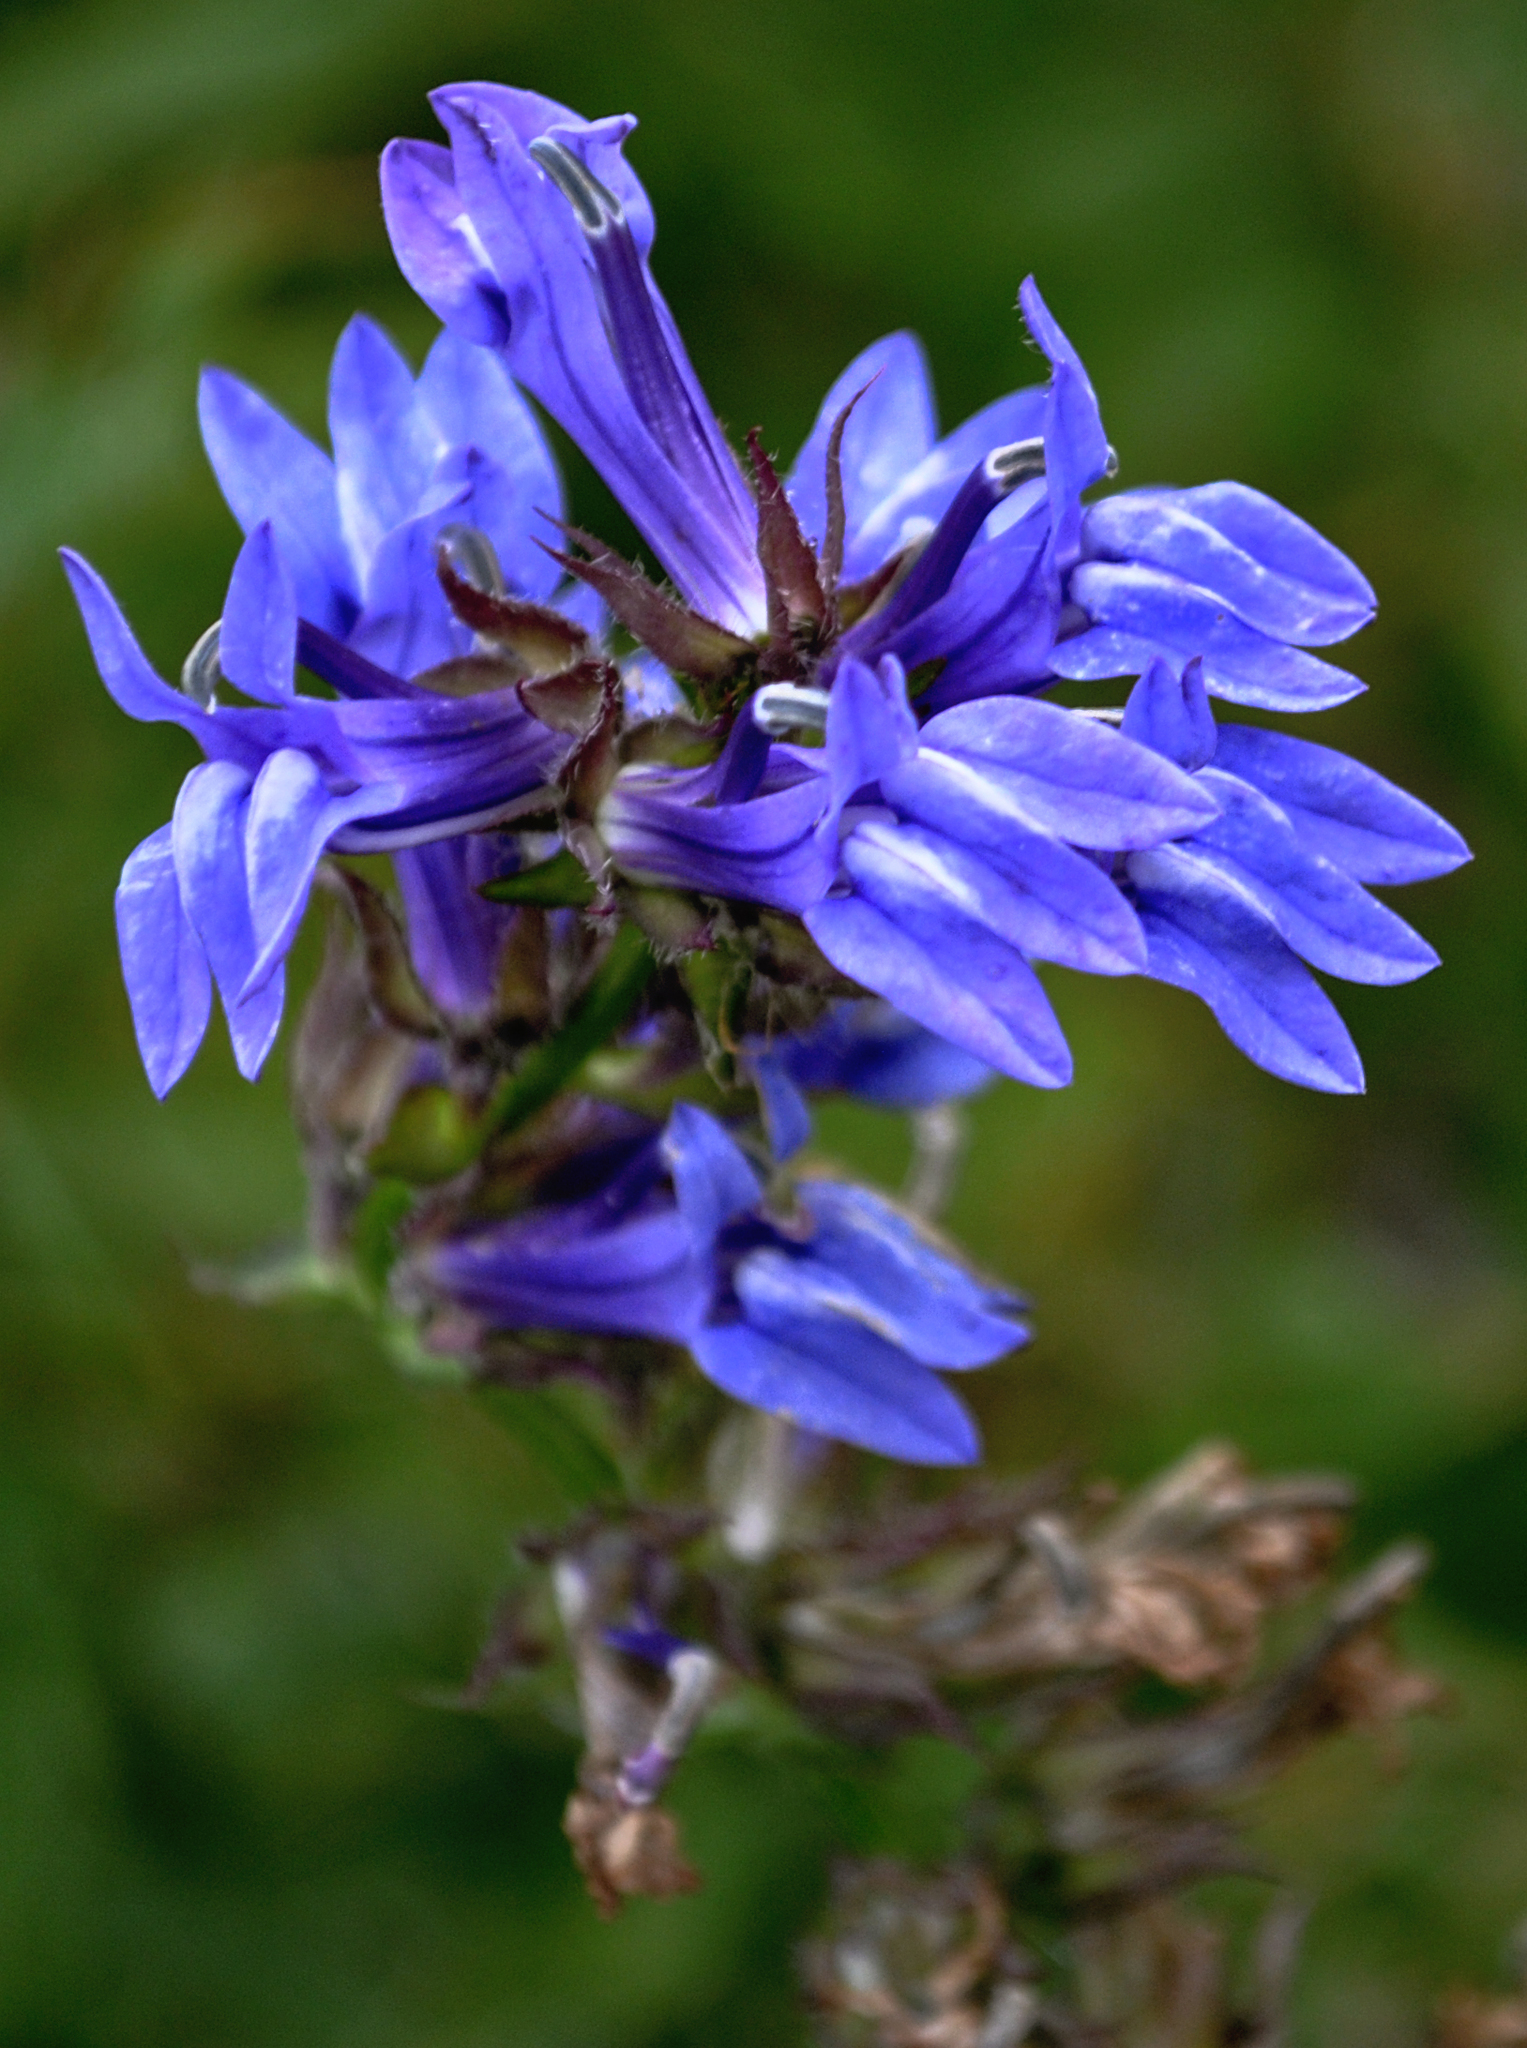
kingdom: Plantae
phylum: Tracheophyta
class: Magnoliopsida
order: Asterales
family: Campanulaceae
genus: Lobelia
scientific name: Lobelia siphilitica
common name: Great lobelia
